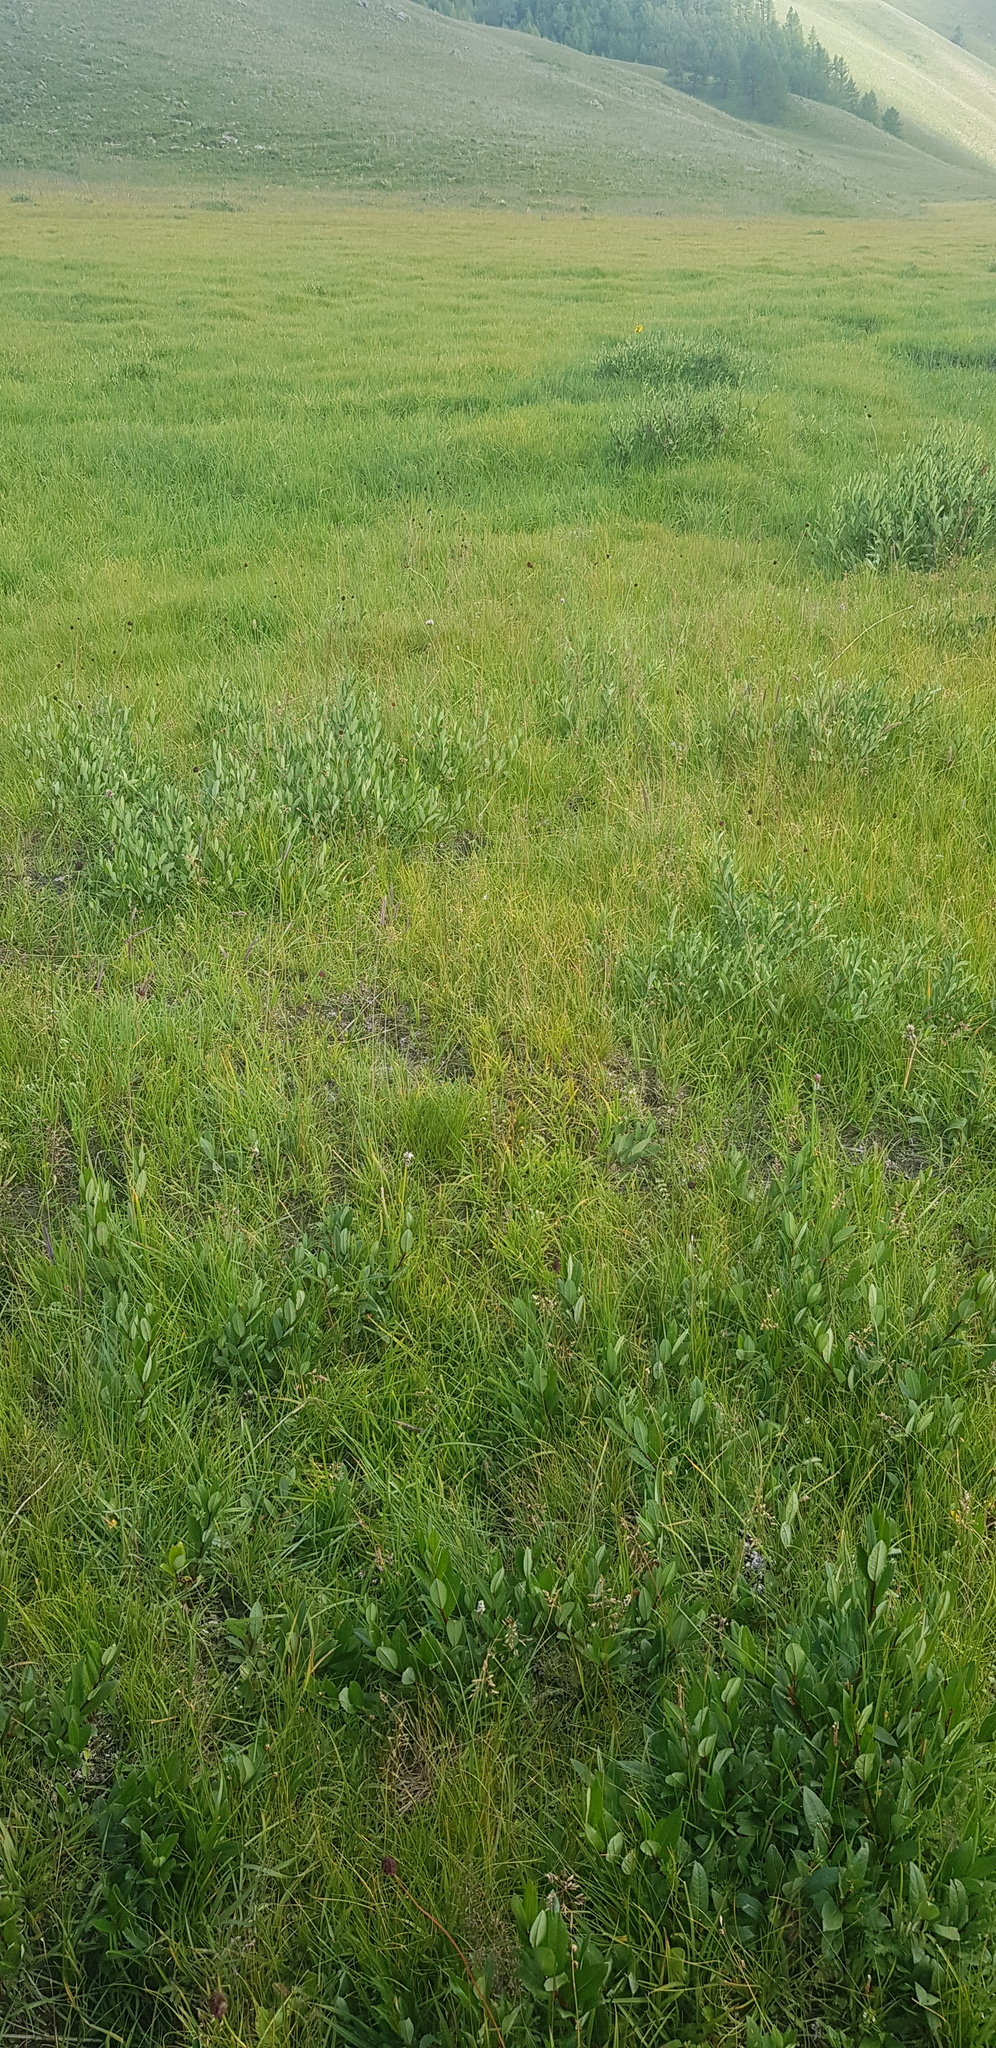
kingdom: Plantae
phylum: Tracheophyta
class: Magnoliopsida
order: Malpighiales
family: Salicaceae
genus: Salix
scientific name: Salix glauca
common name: Glaucous willow
